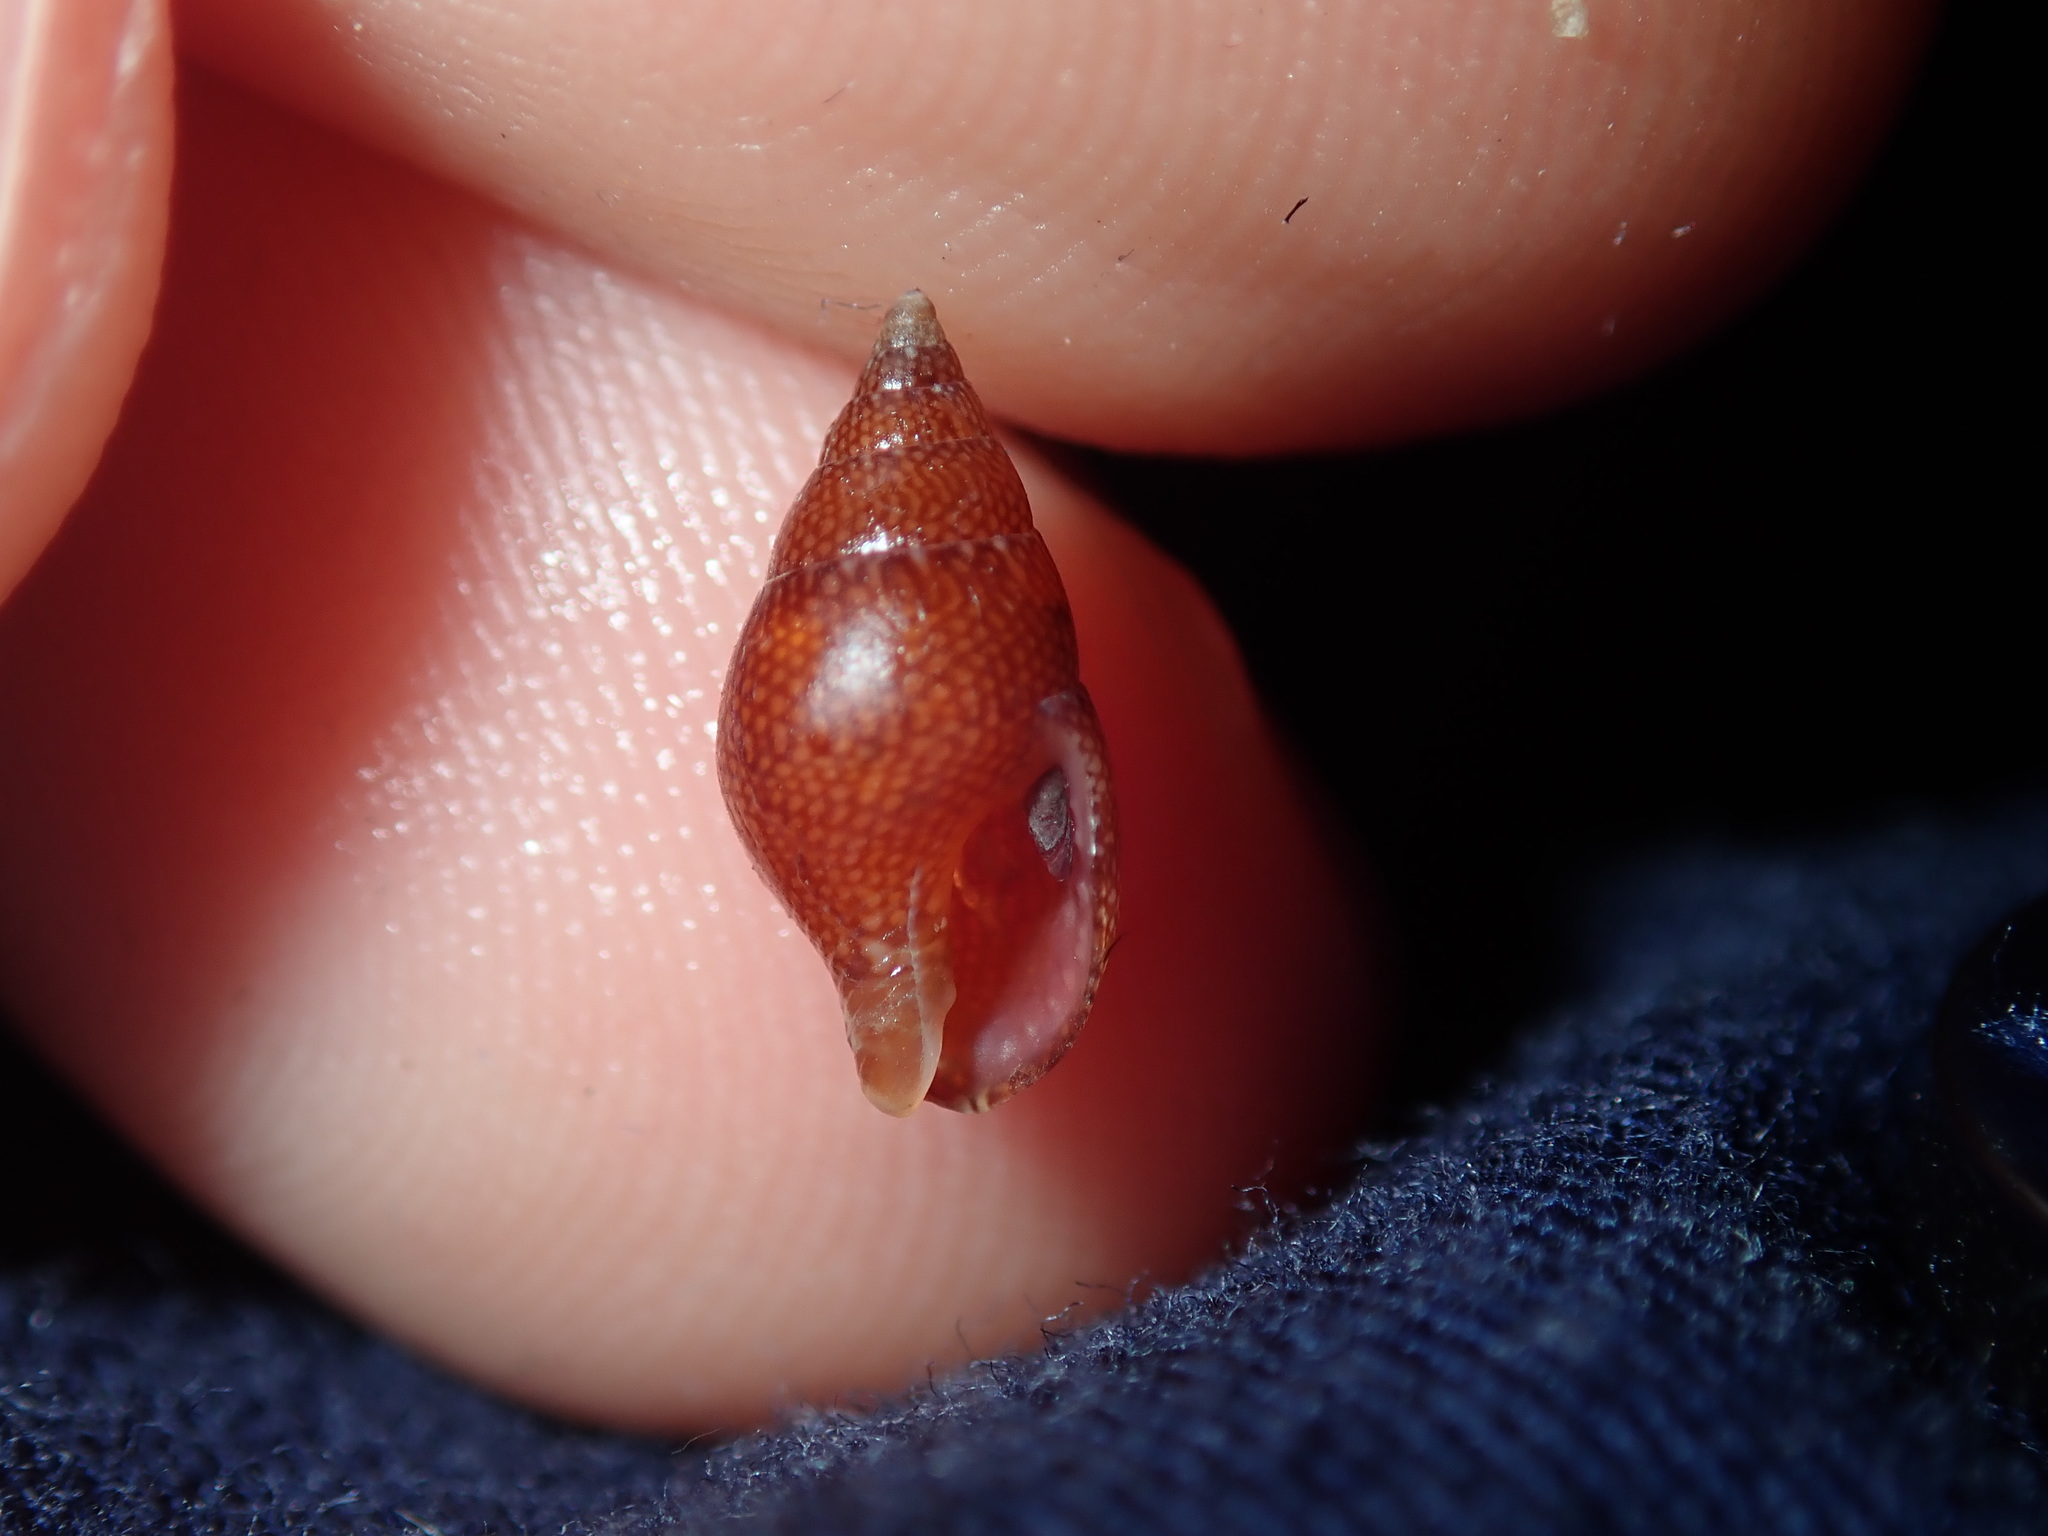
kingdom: Animalia
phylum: Mollusca
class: Gastropoda
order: Neogastropoda
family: Columbellidae
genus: Mitrella
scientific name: Mitrella bicincta
